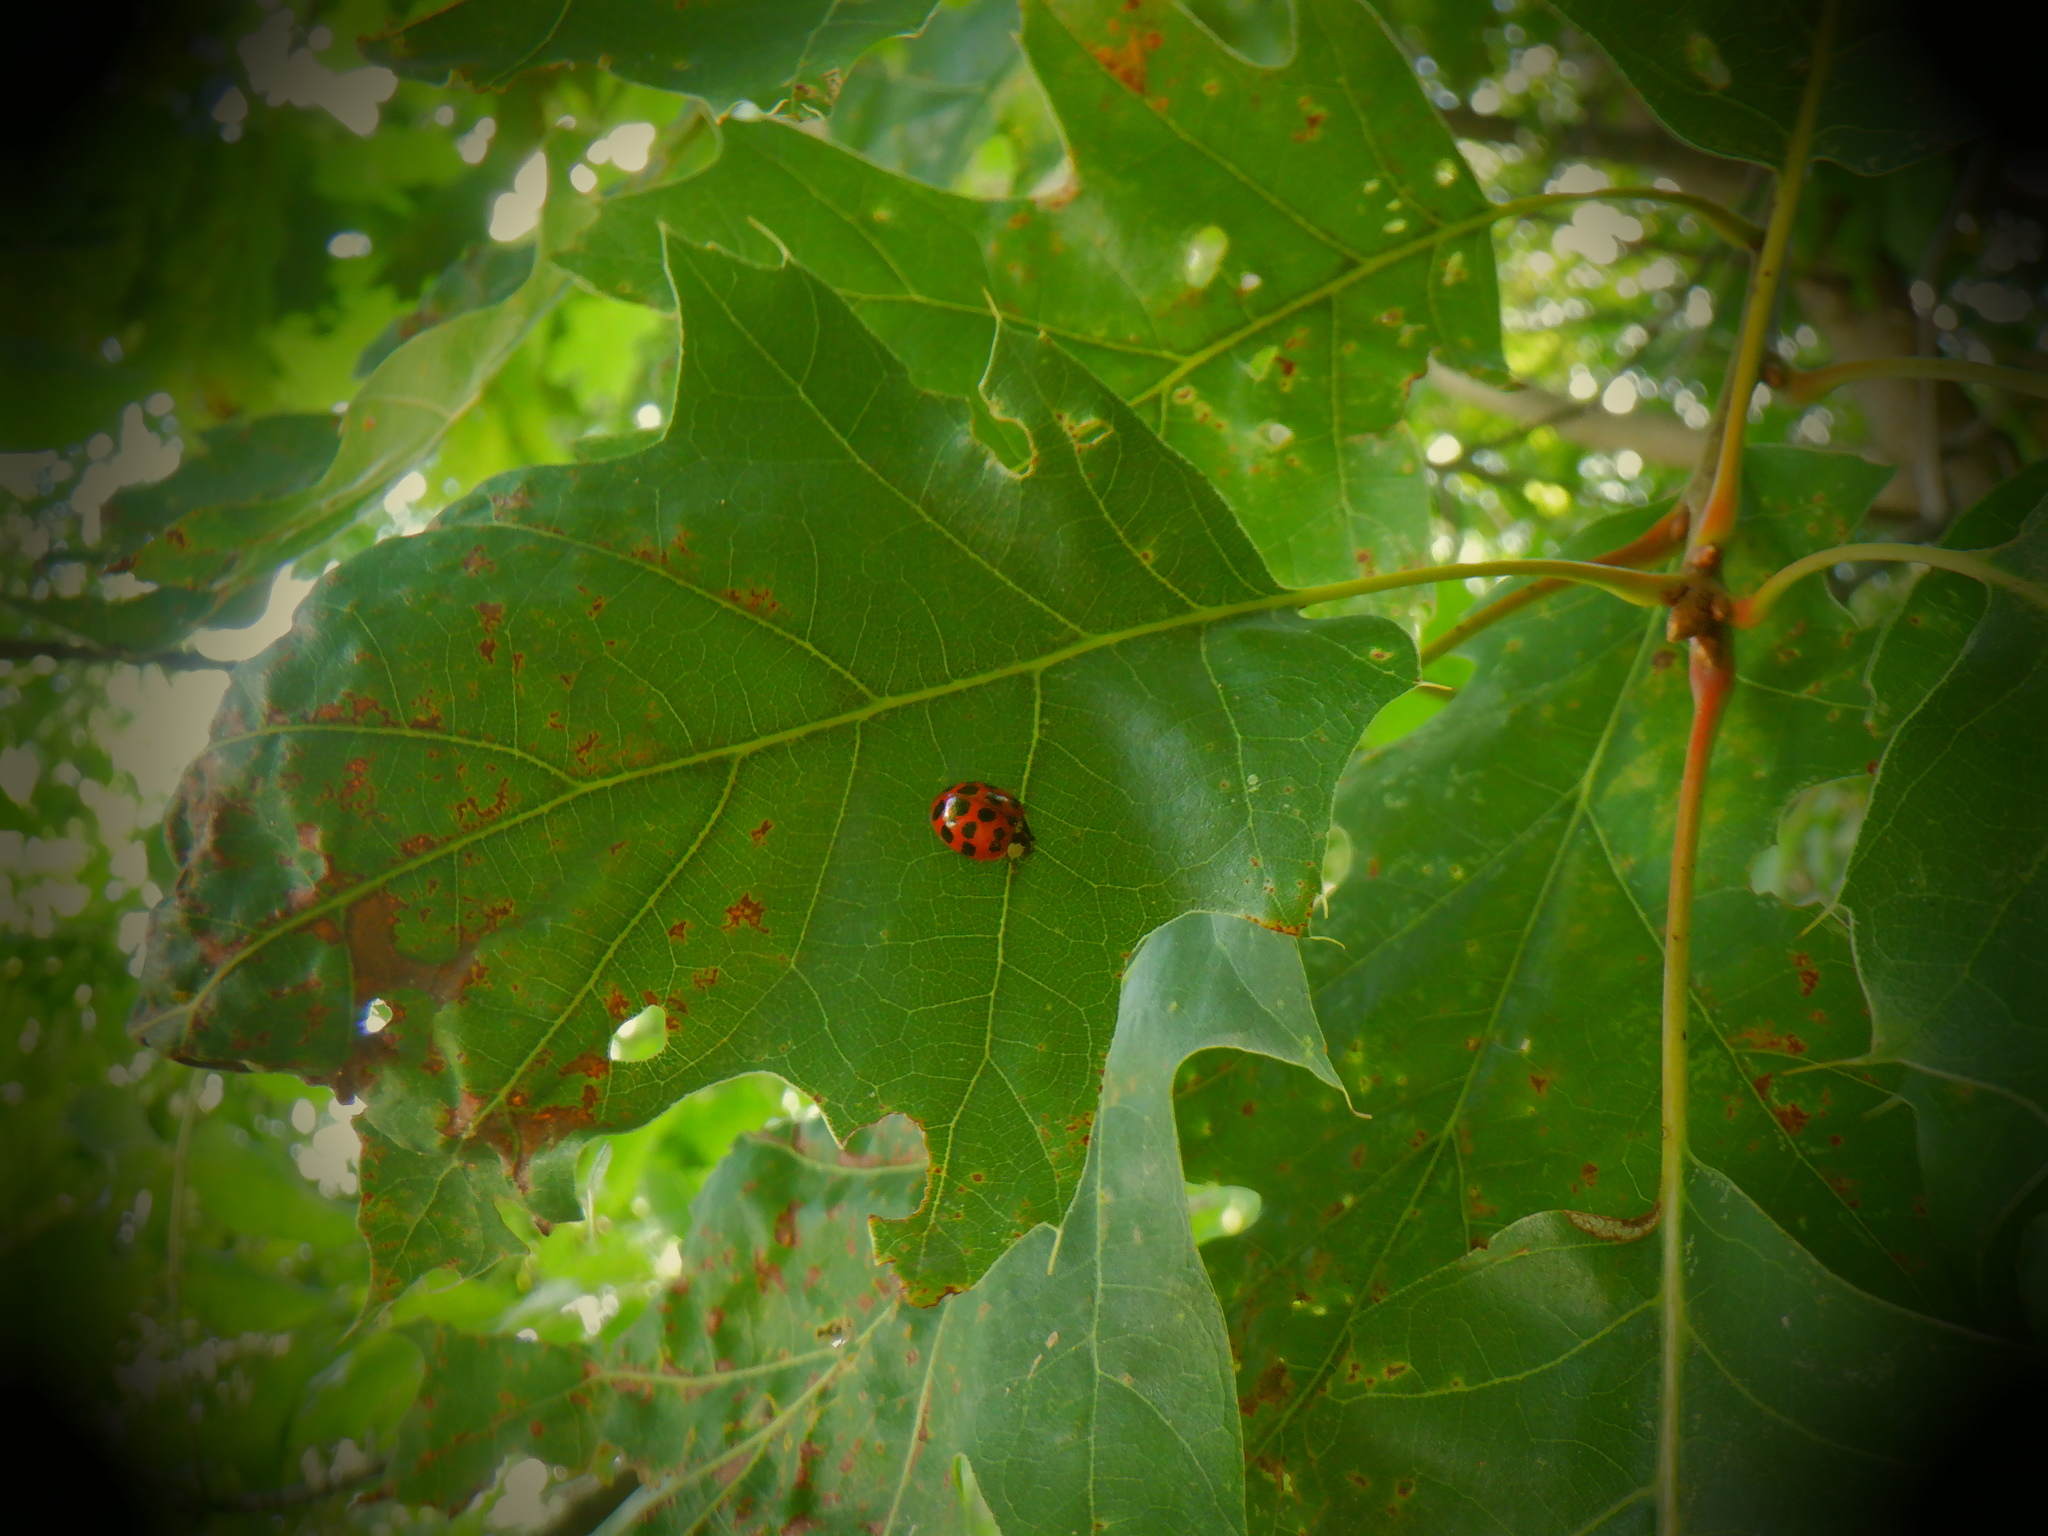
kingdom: Animalia
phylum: Arthropoda
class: Insecta
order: Coleoptera
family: Coccinellidae
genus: Harmonia
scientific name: Harmonia axyridis
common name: Harlequin ladybird
